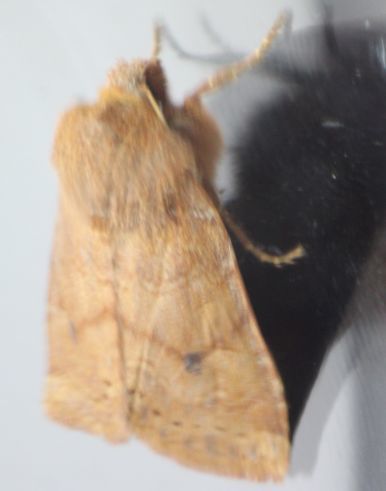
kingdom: Animalia
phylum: Arthropoda
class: Insecta
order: Lepidoptera
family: Noctuidae
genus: Conistra
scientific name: Conistra vaccinii
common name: Chestnut
